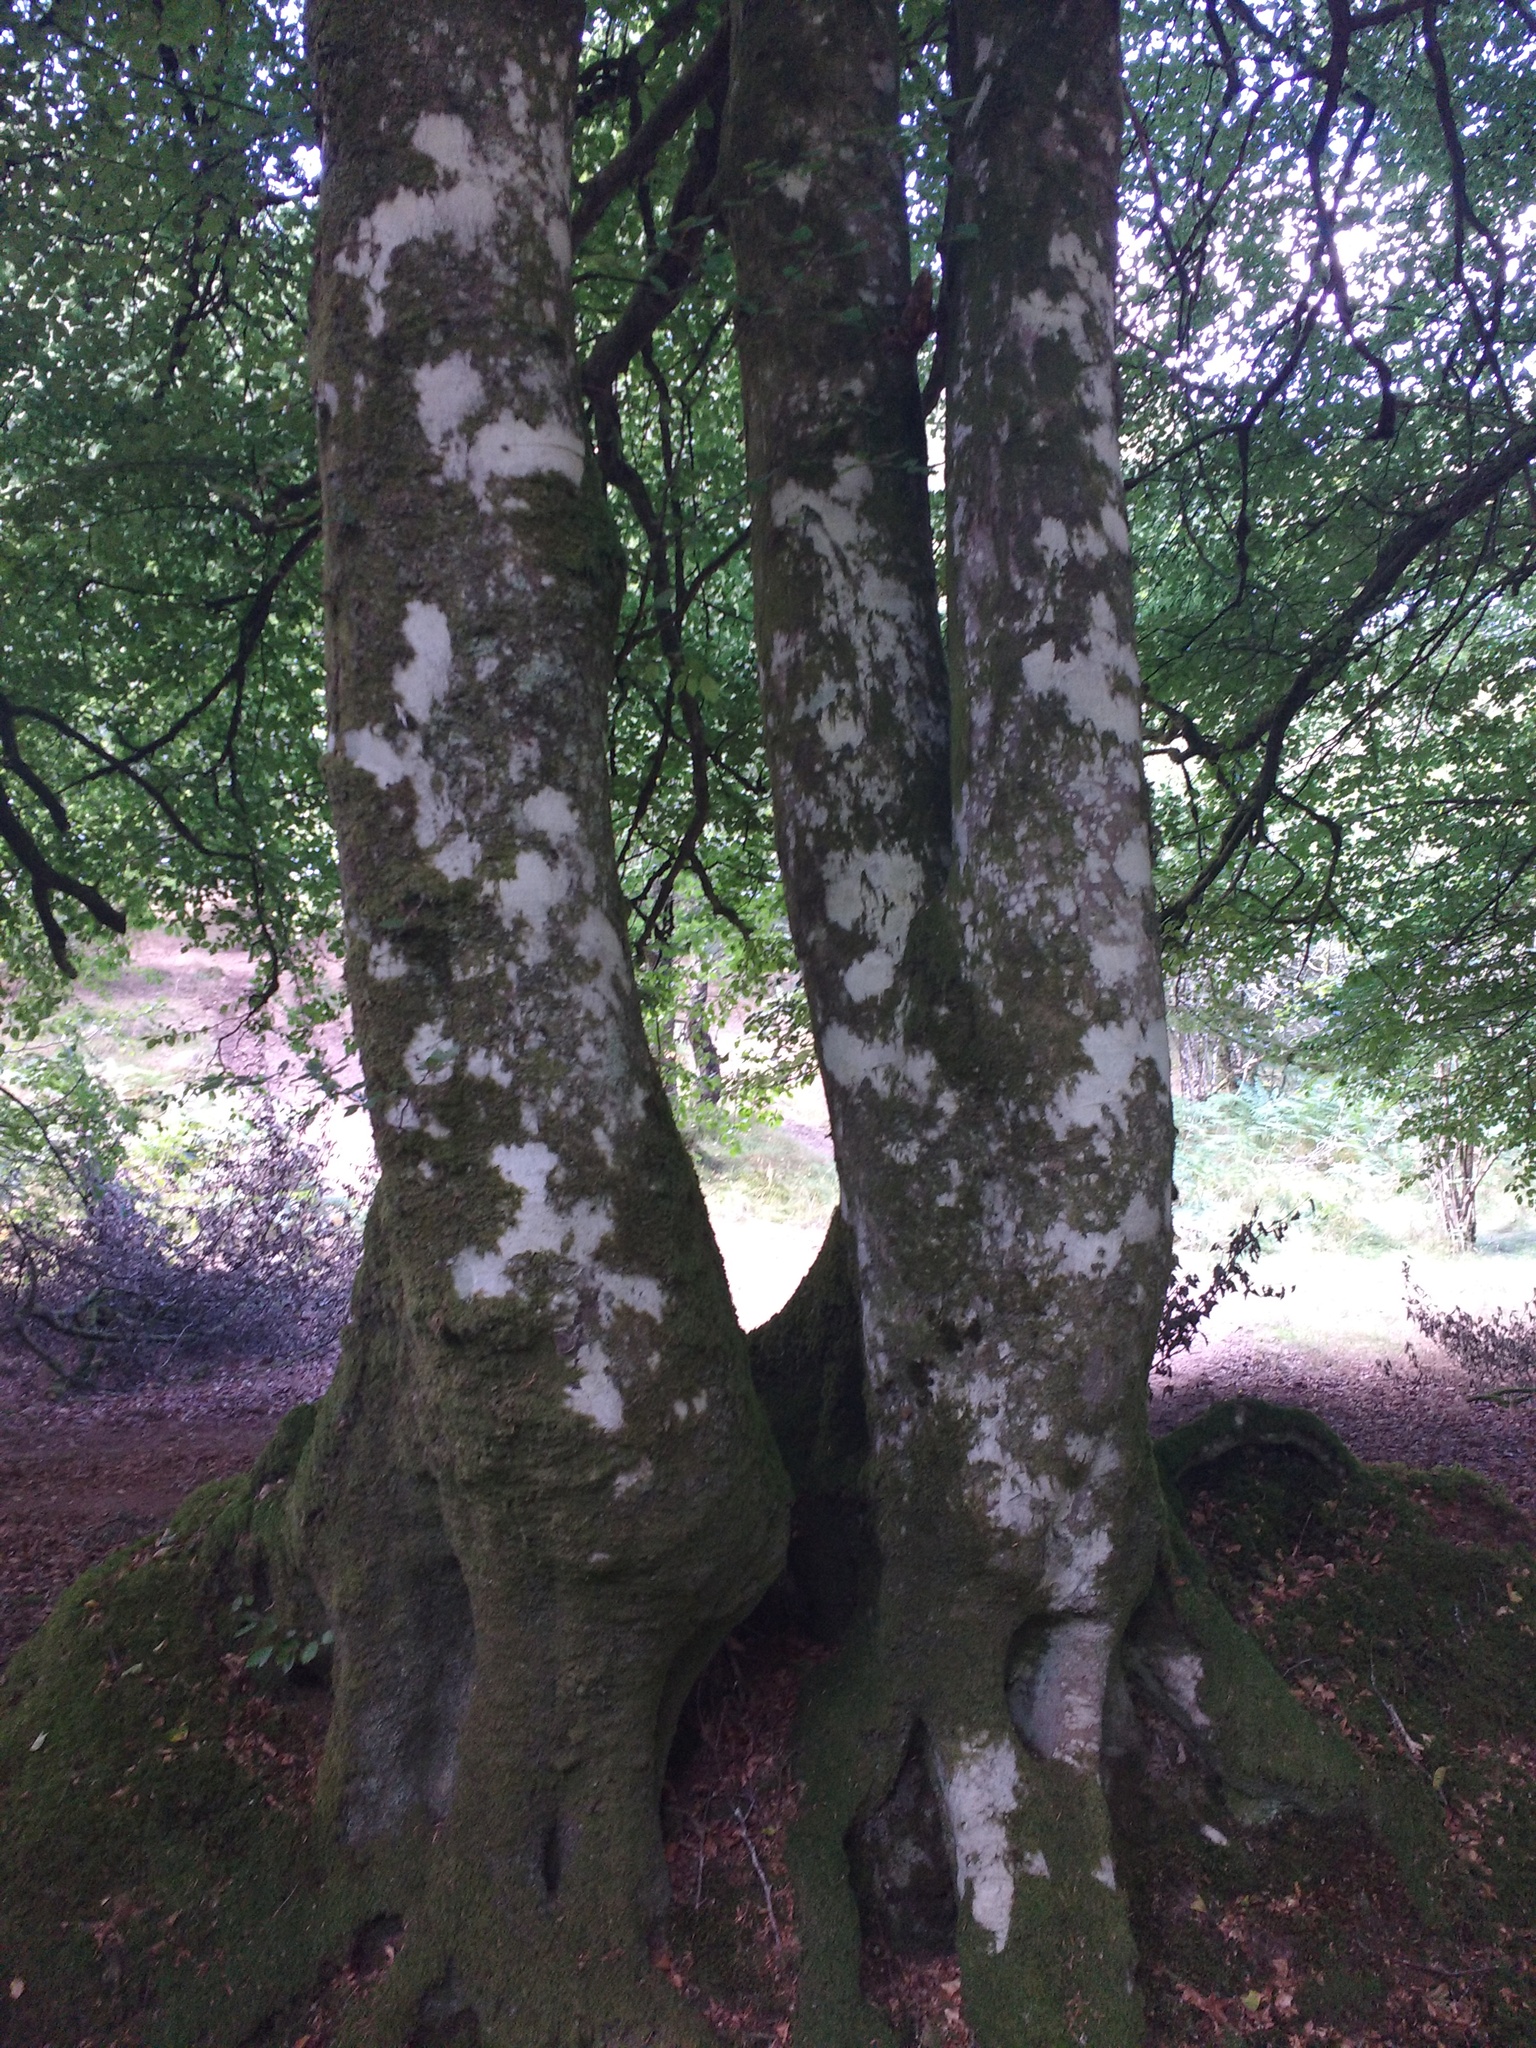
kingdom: Plantae
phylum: Tracheophyta
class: Magnoliopsida
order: Fagales
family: Fagaceae
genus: Fagus
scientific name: Fagus sylvatica
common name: Beech
